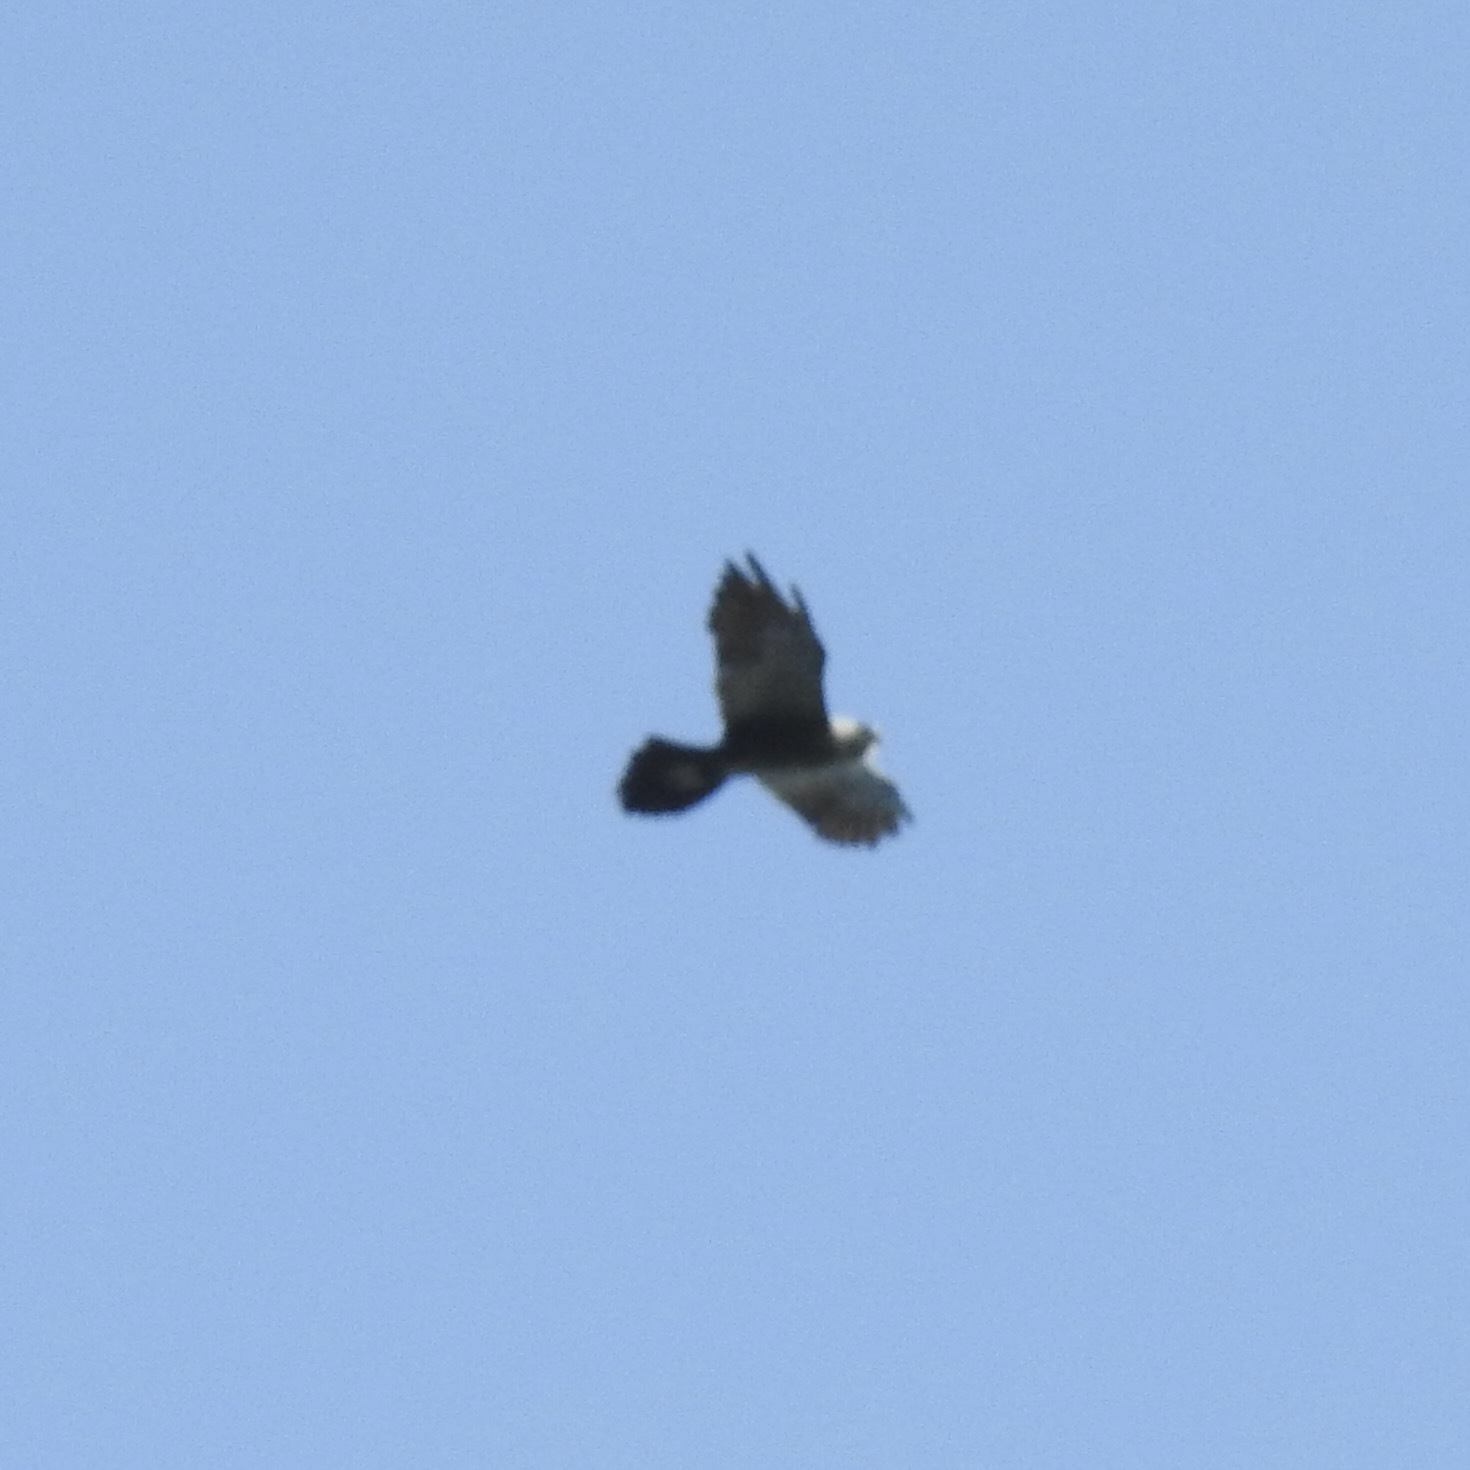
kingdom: Animalia
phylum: Chordata
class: Aves
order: Accipitriformes
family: Accipitridae
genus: Ictinia
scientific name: Ictinia mississippiensis
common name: Mississippi kite
